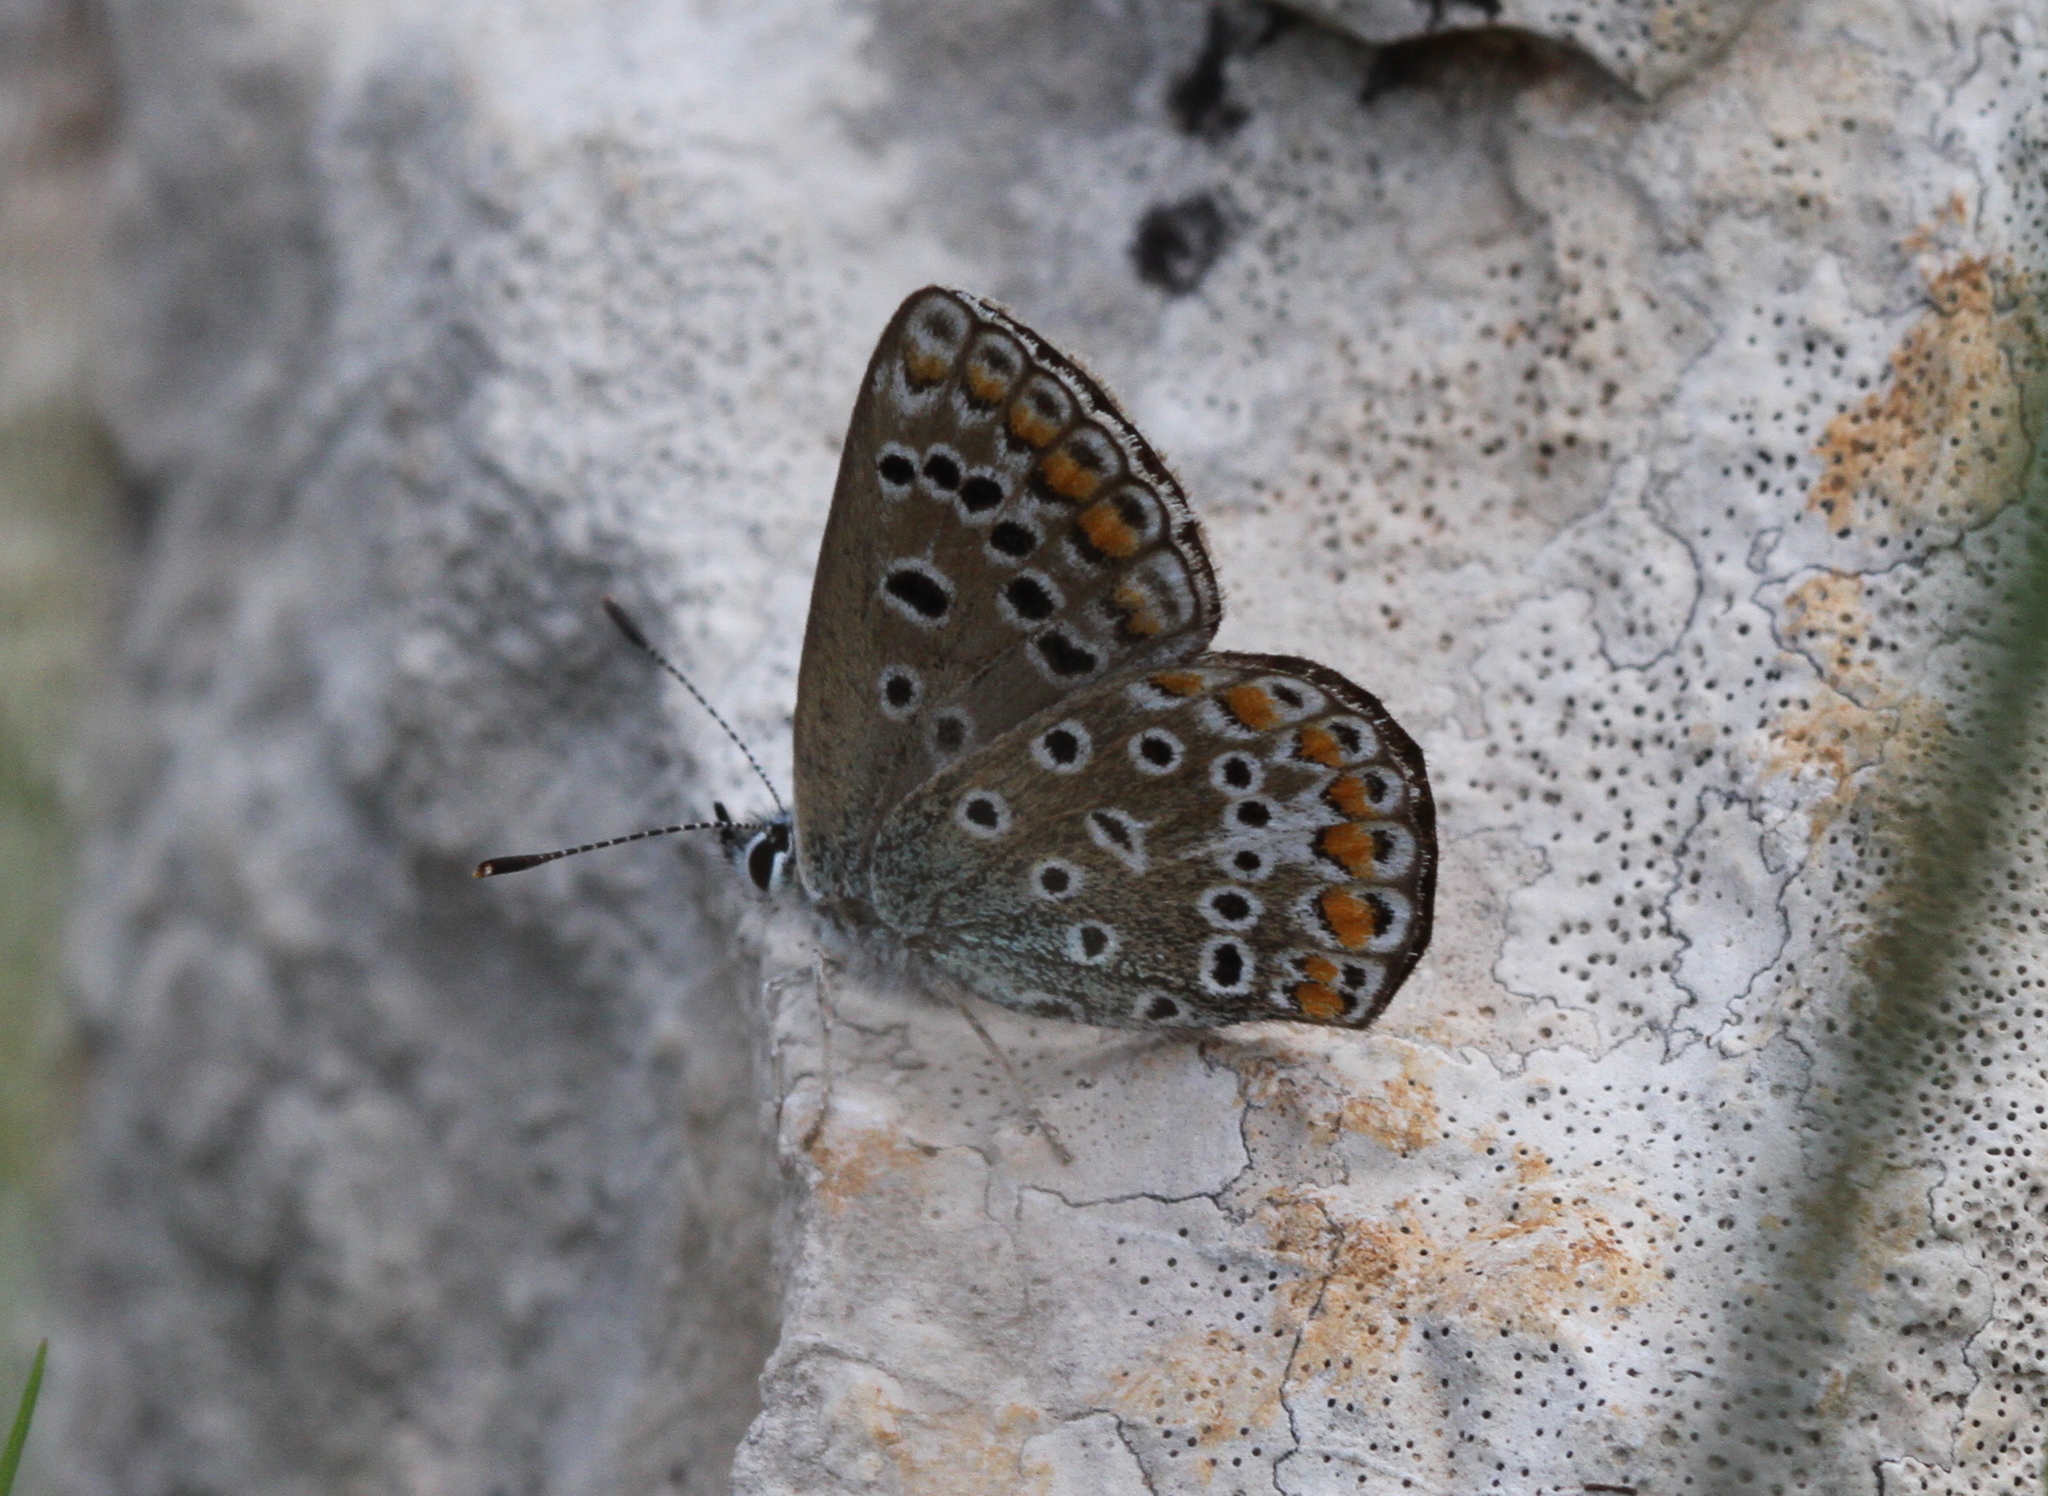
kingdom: Animalia
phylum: Arthropoda
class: Insecta
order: Lepidoptera
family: Lycaenidae
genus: Polyommatus
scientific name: Polyommatus icarus
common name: Common blue
